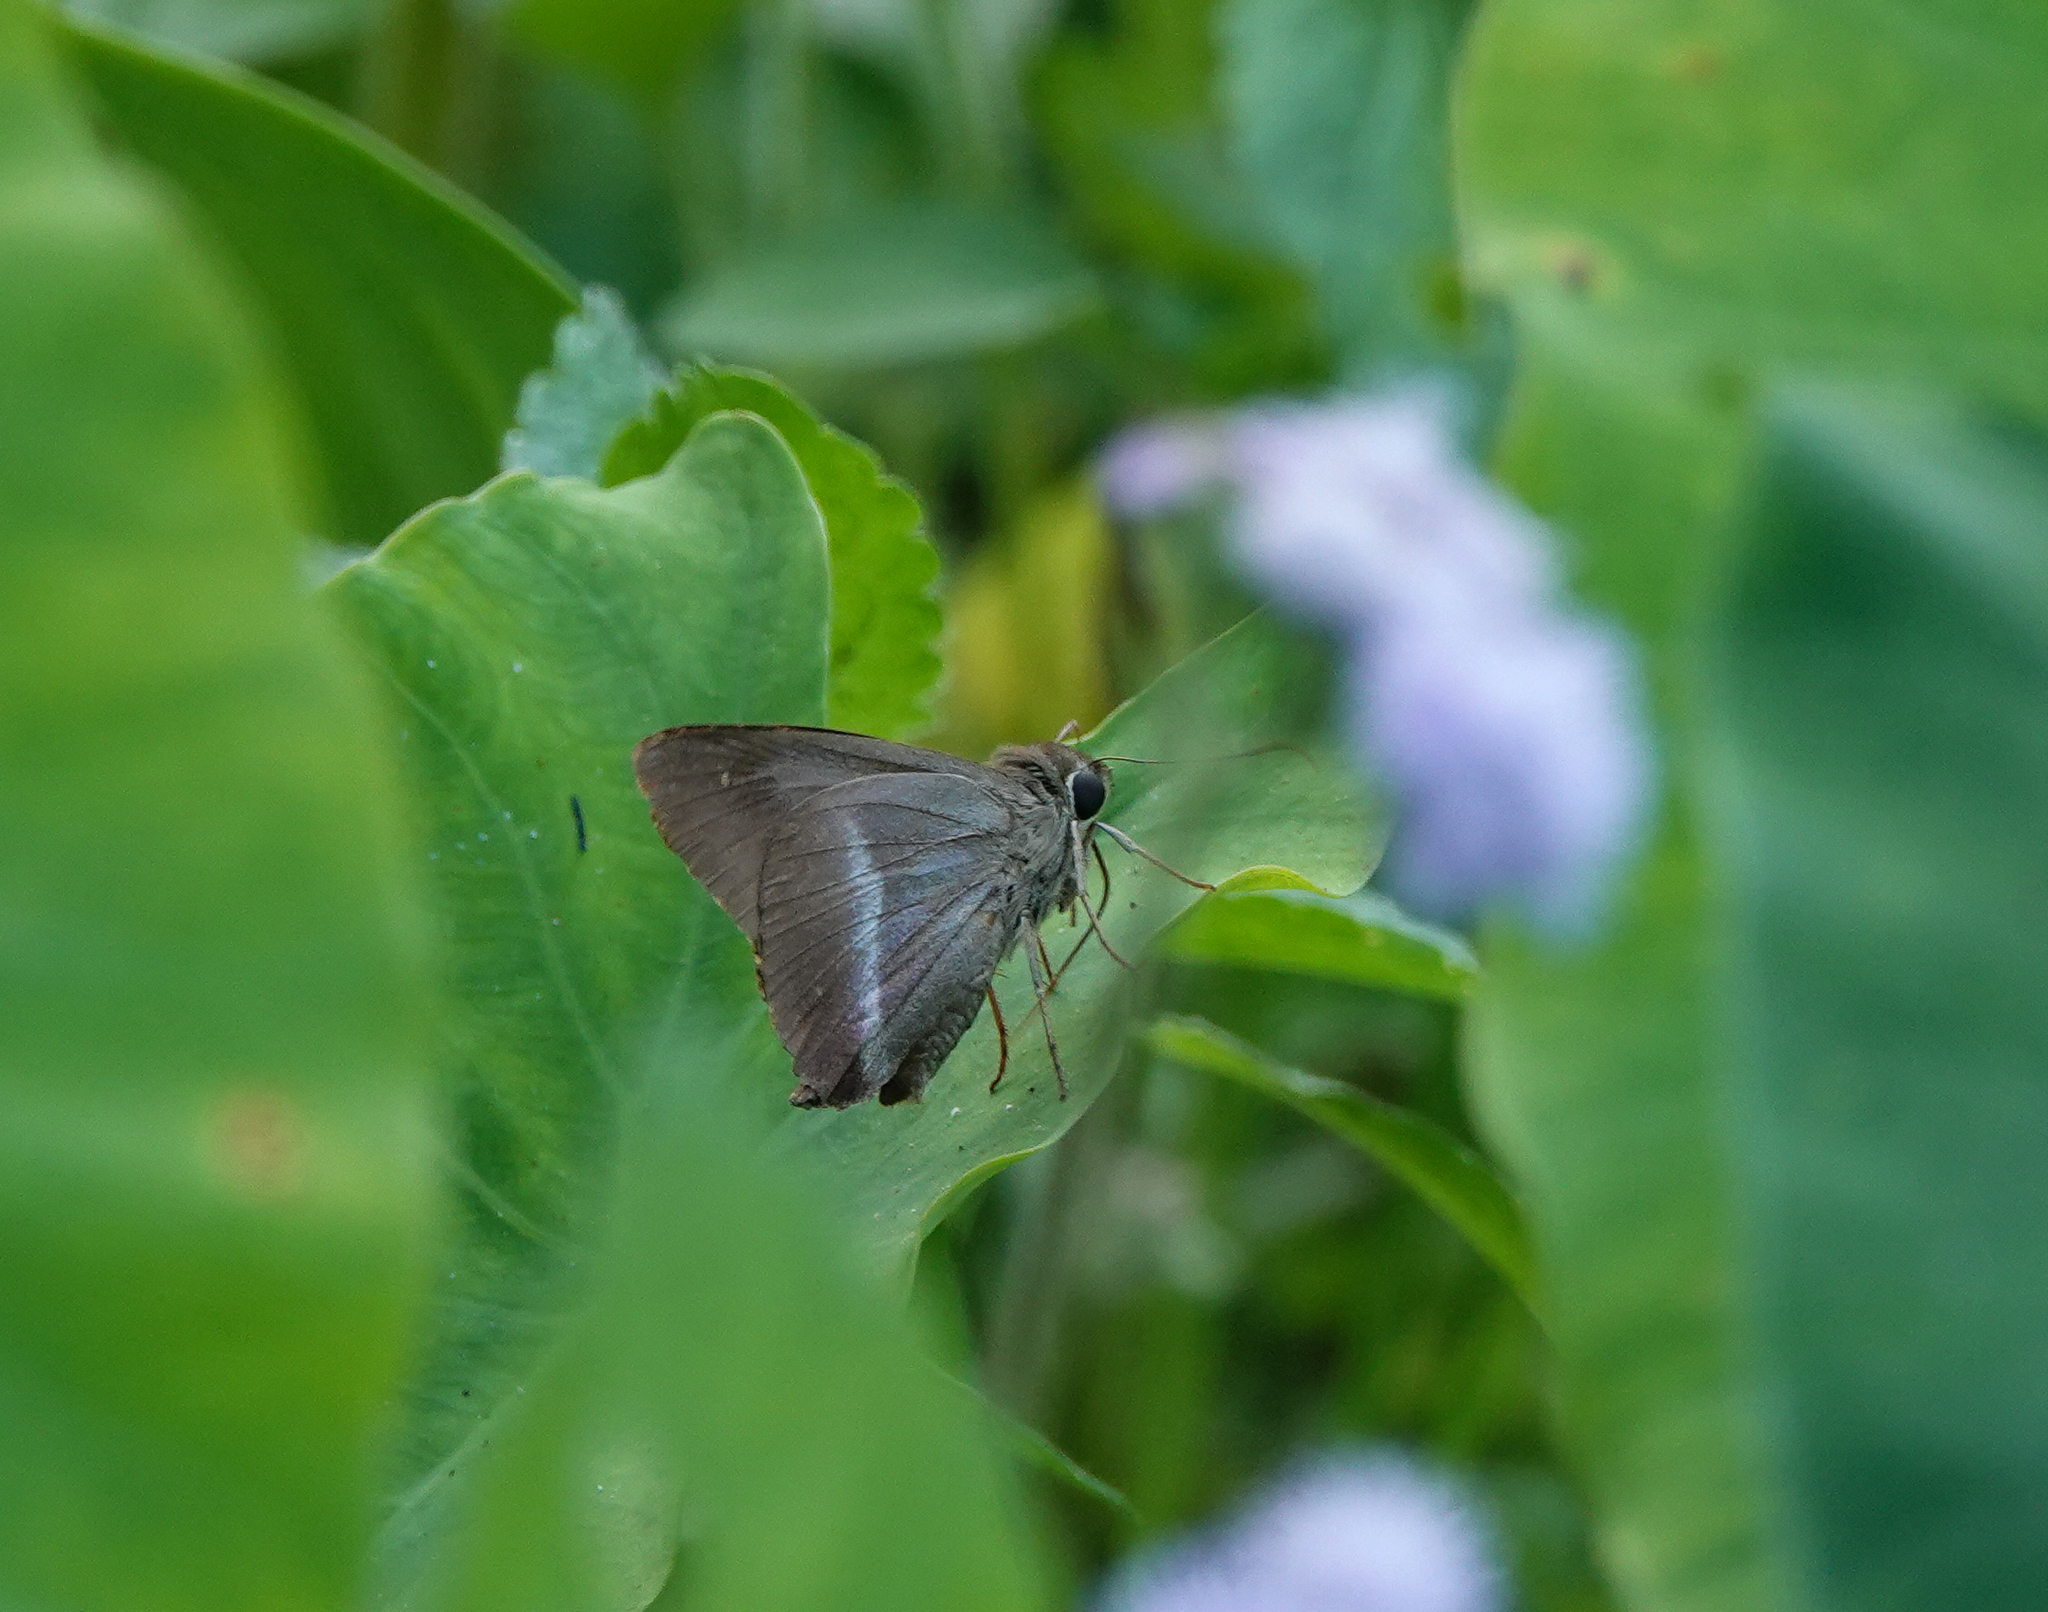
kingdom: Animalia
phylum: Arthropoda
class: Insecta
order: Lepidoptera
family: Hesperiidae
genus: Hasora
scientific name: Hasora chromus
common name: Common banded awl
